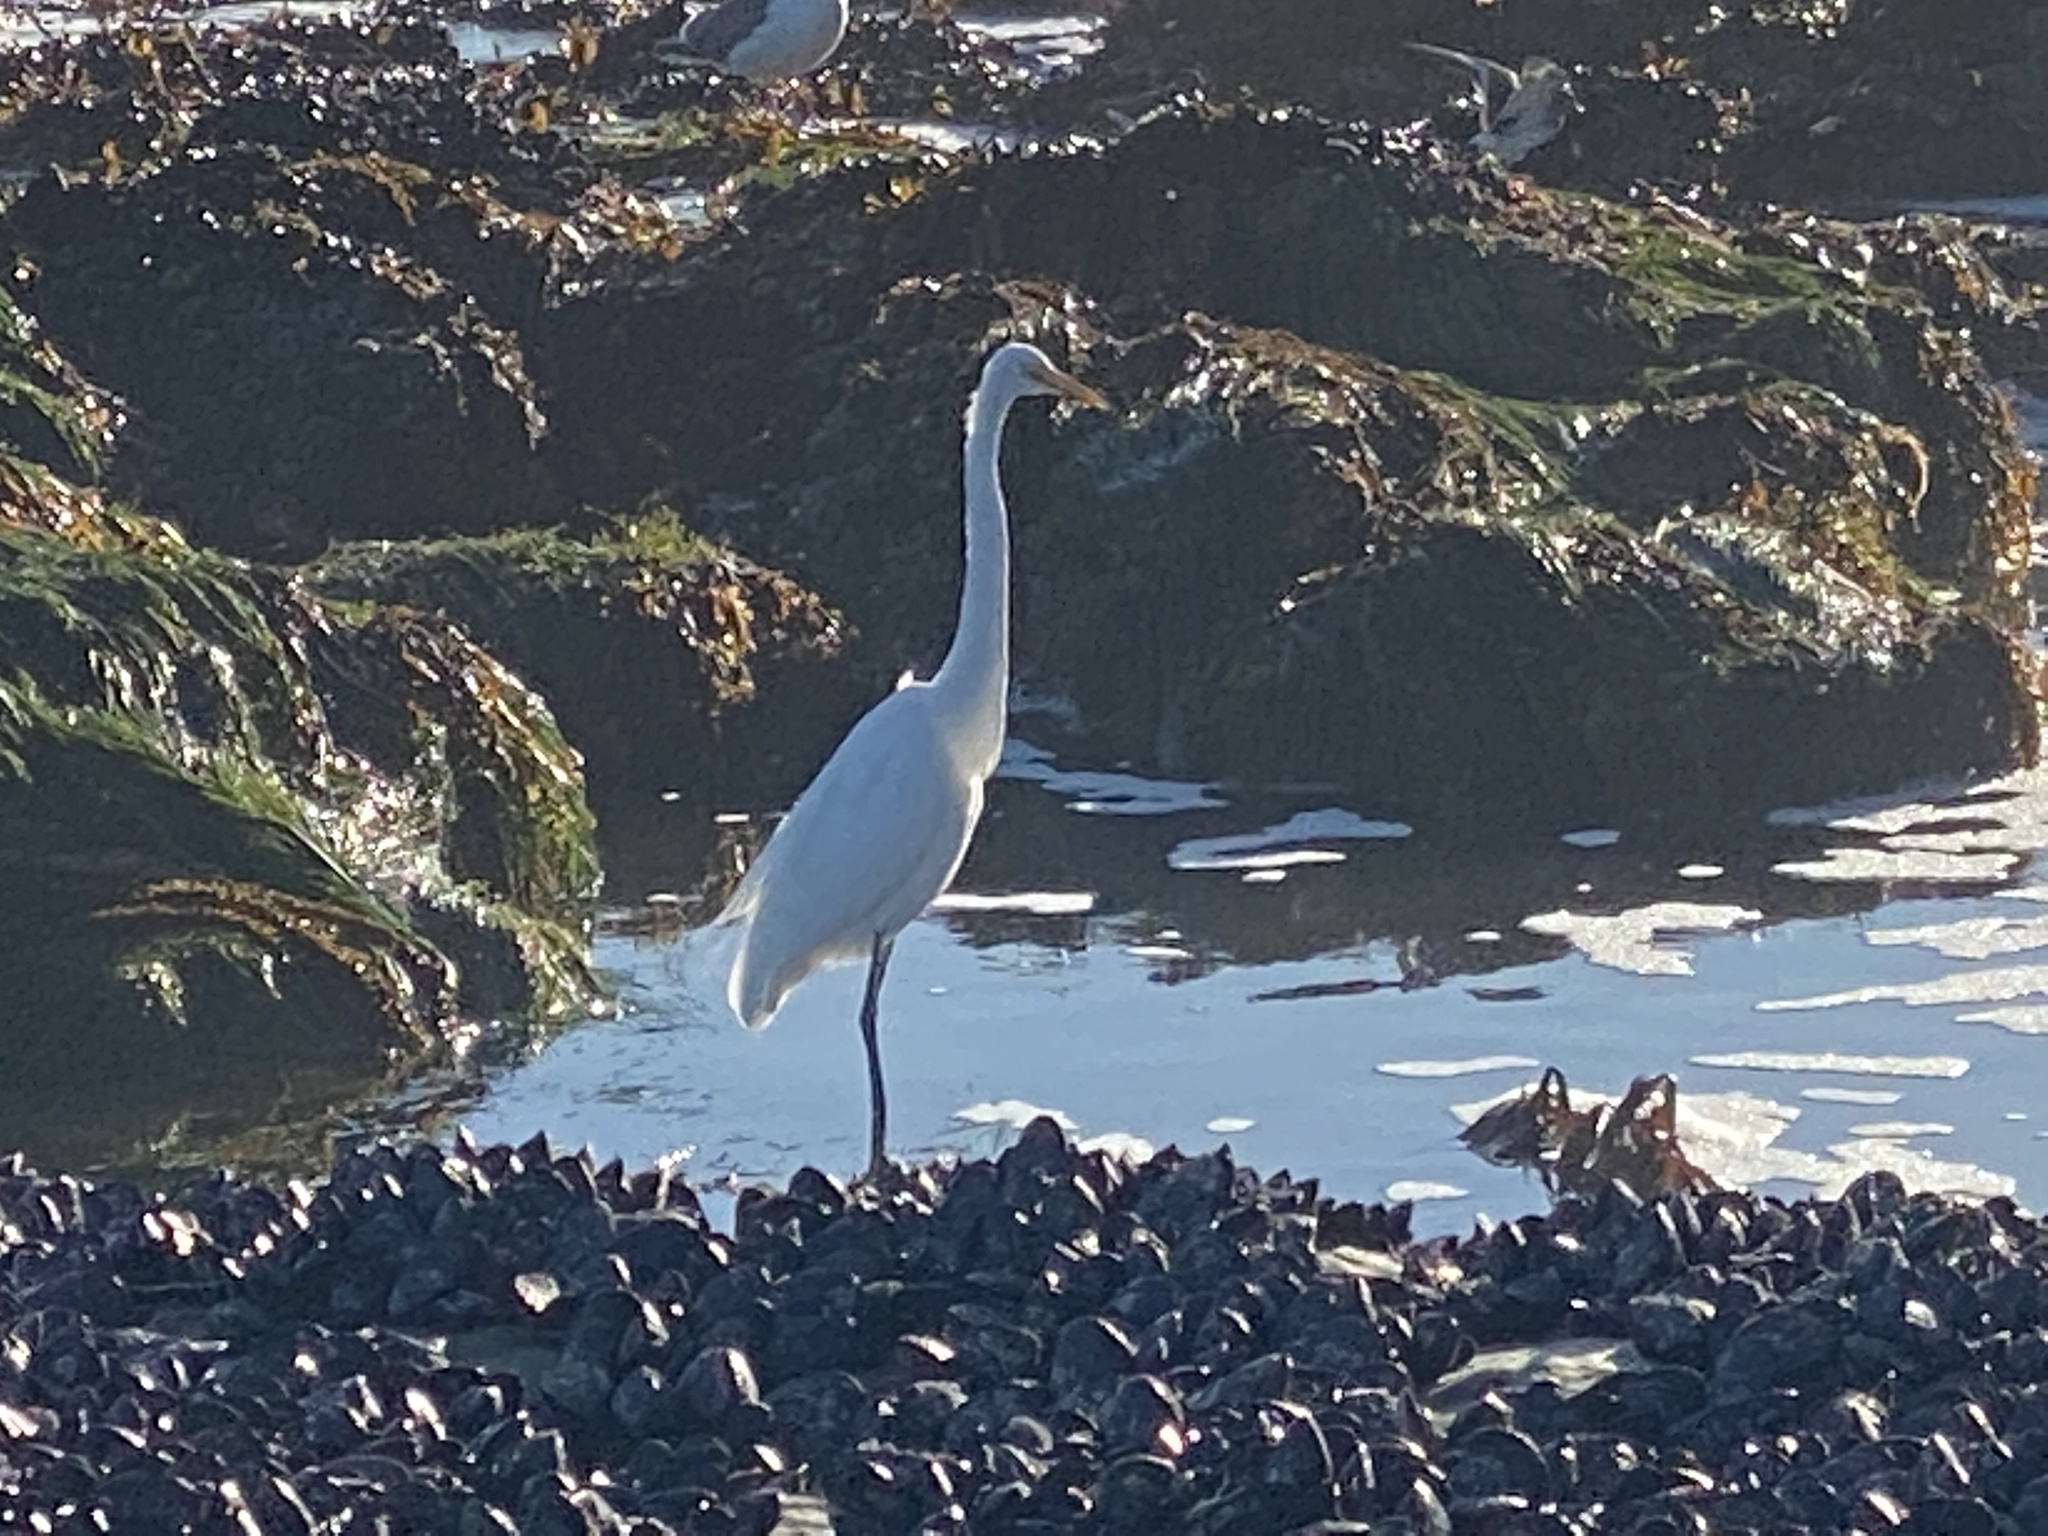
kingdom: Animalia
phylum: Chordata
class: Aves
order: Pelecaniformes
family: Ardeidae
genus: Ardea
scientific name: Ardea alba
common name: Great egret
